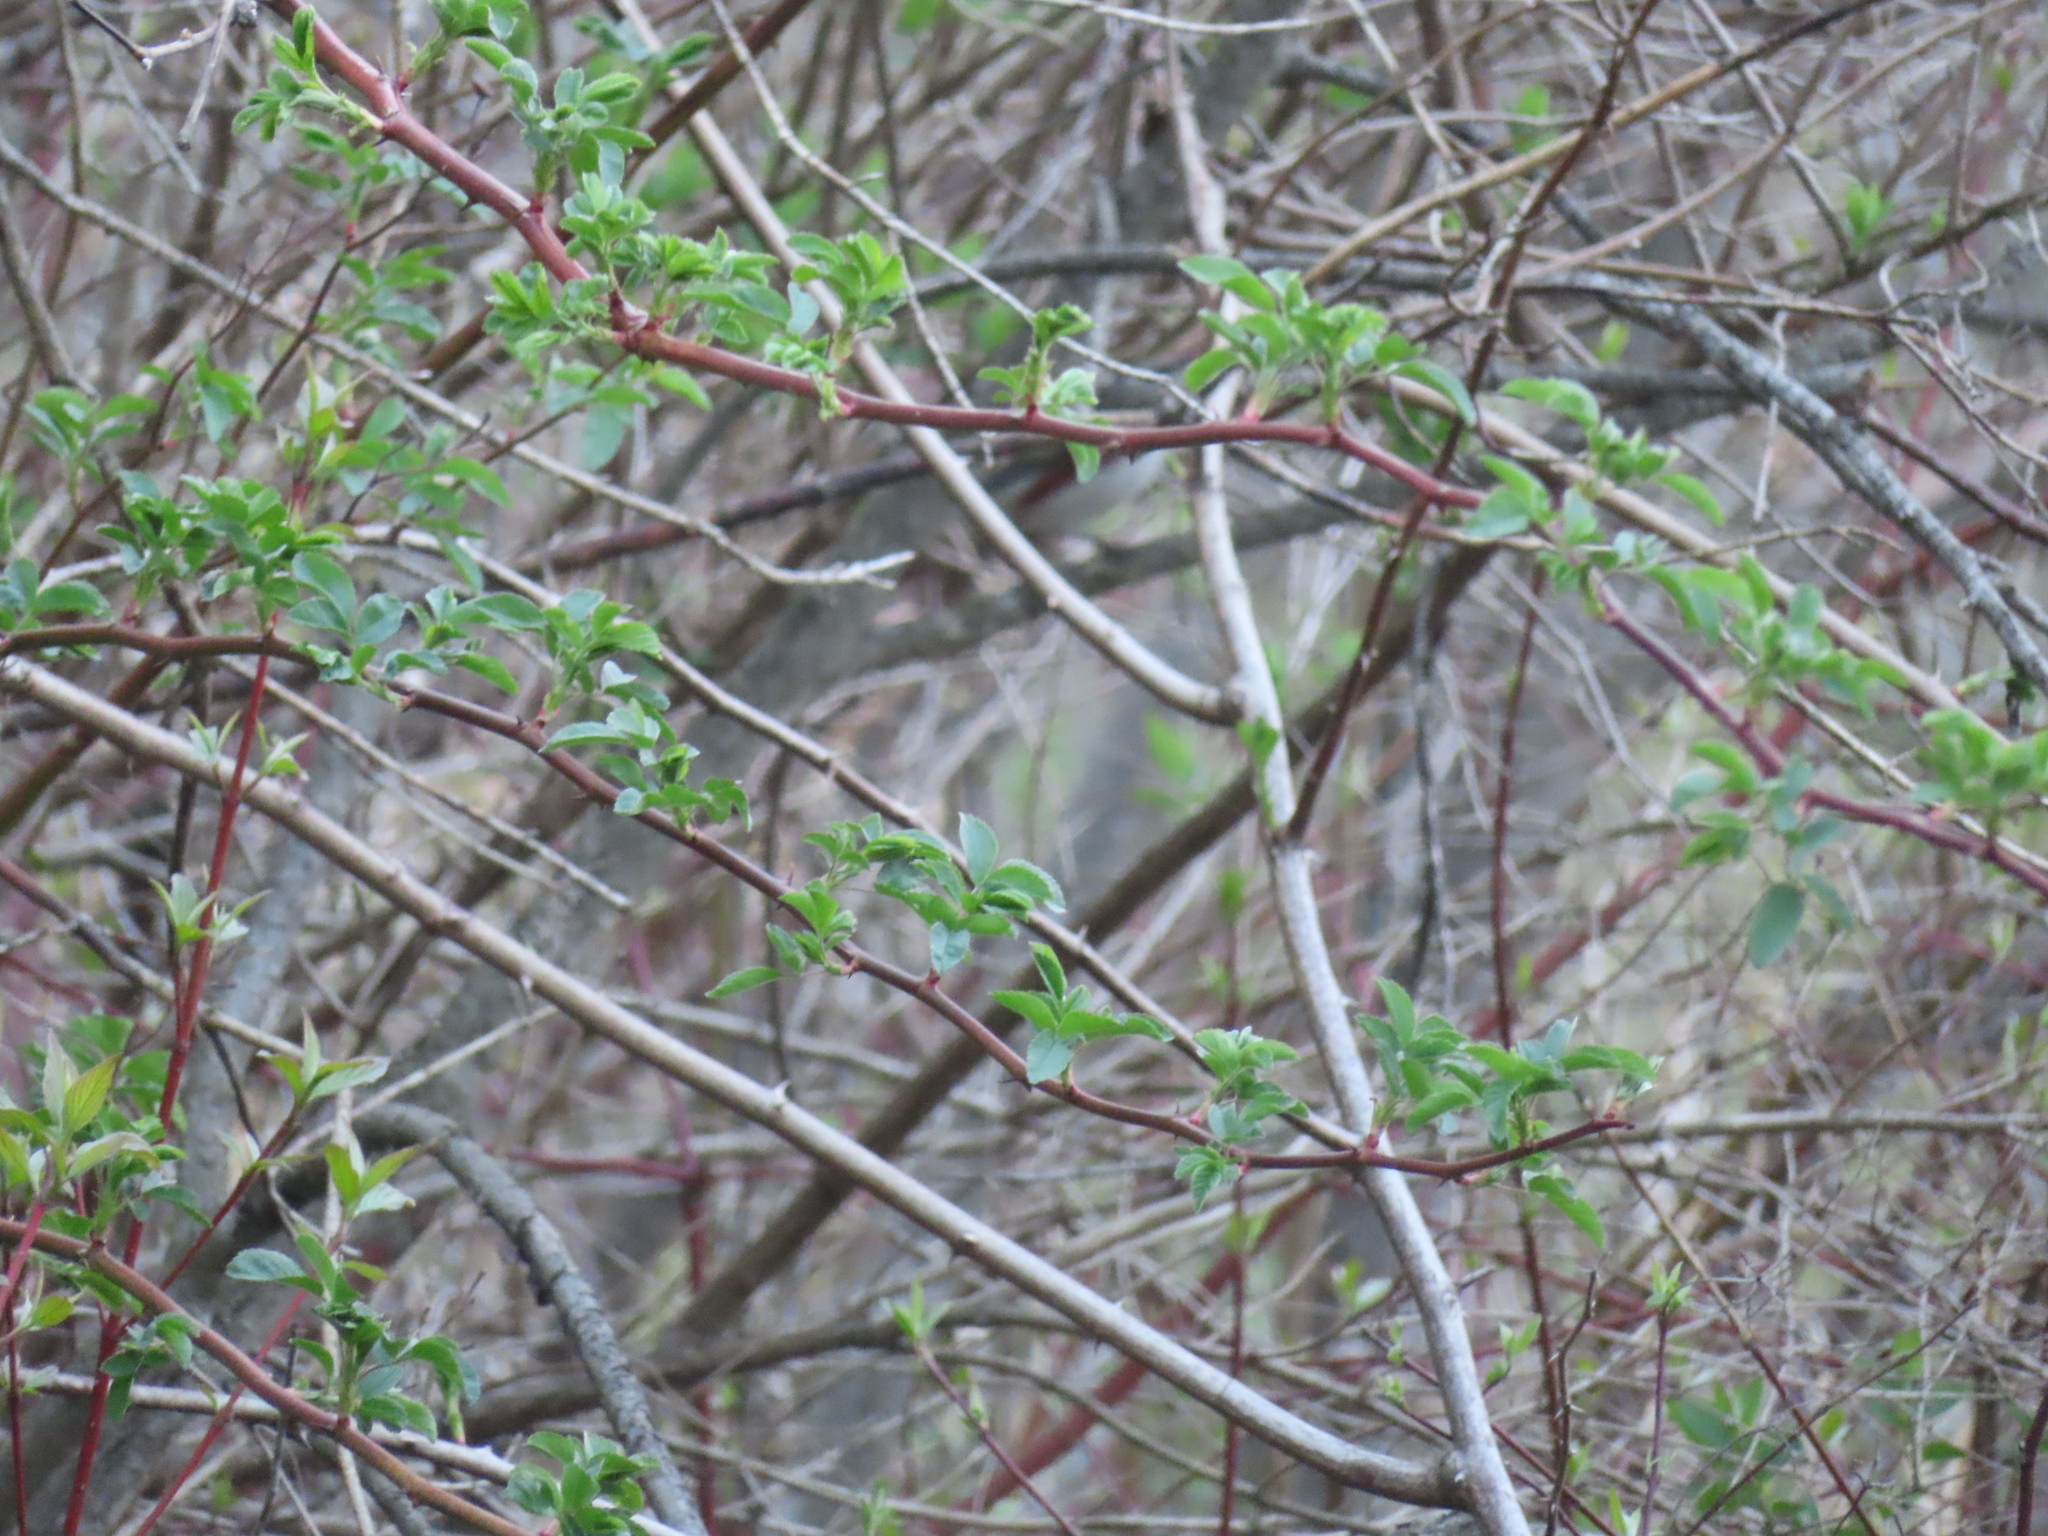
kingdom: Plantae
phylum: Tracheophyta
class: Magnoliopsida
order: Rosales
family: Rosaceae
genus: Rosa
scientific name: Rosa multiflora
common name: Multiflora rose
